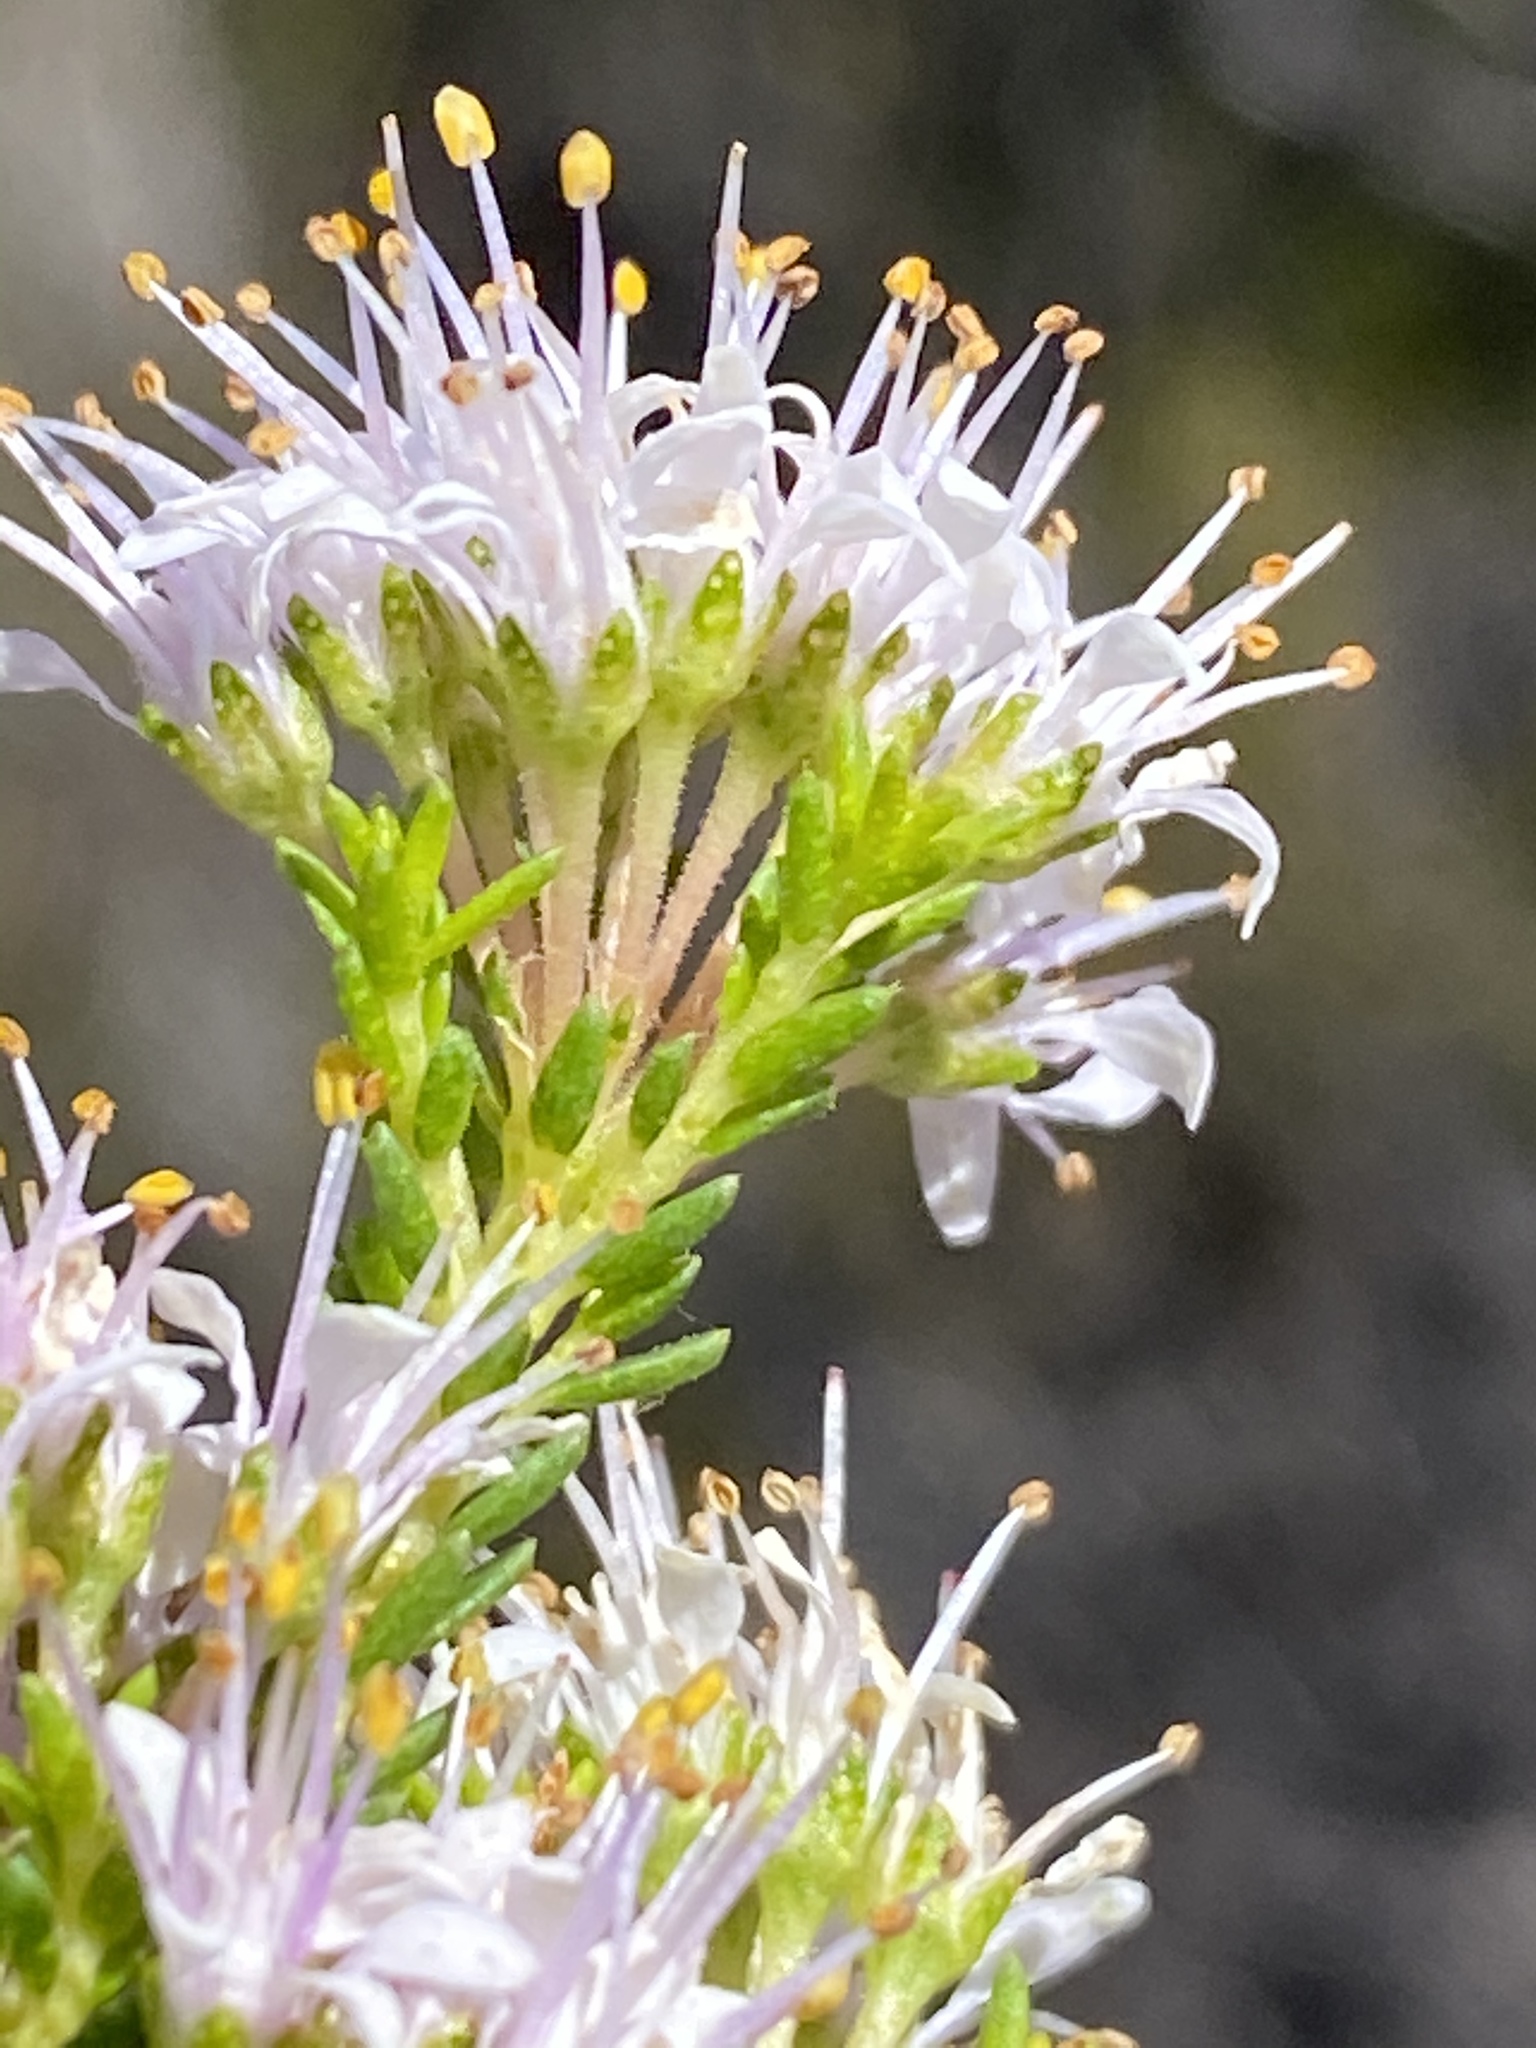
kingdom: Plantae
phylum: Tracheophyta
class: Magnoliopsida
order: Sapindales
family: Rutaceae
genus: Agathosma
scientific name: Agathosma capensis
